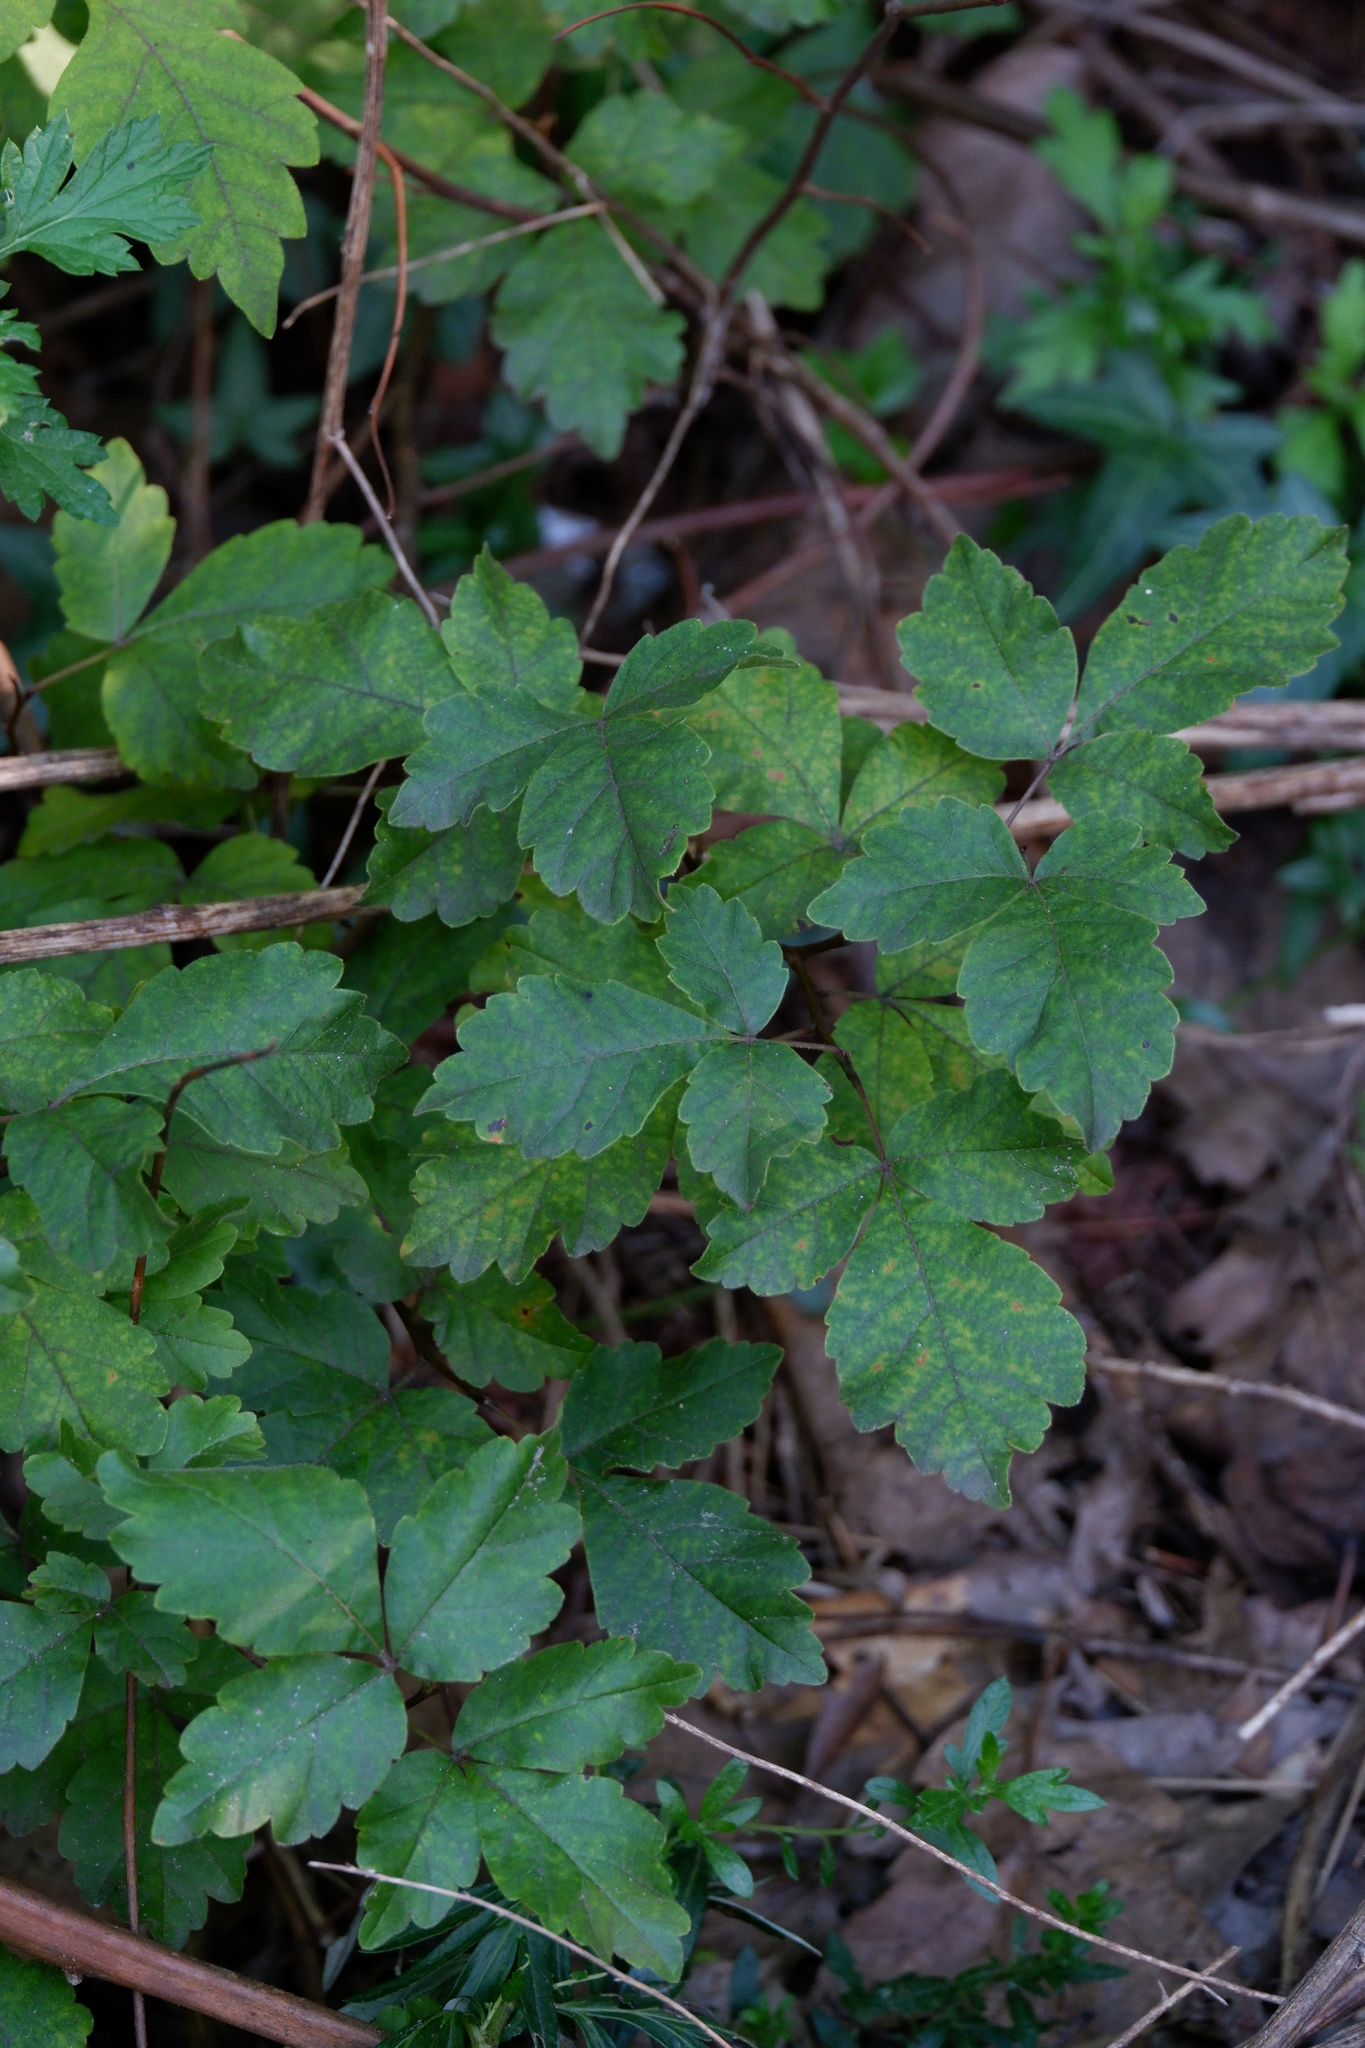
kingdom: Plantae
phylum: Tracheophyta
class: Magnoliopsida
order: Sapindales
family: Anacardiaceae
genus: Rhus
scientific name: Rhus aromatica
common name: Aromatic sumac
